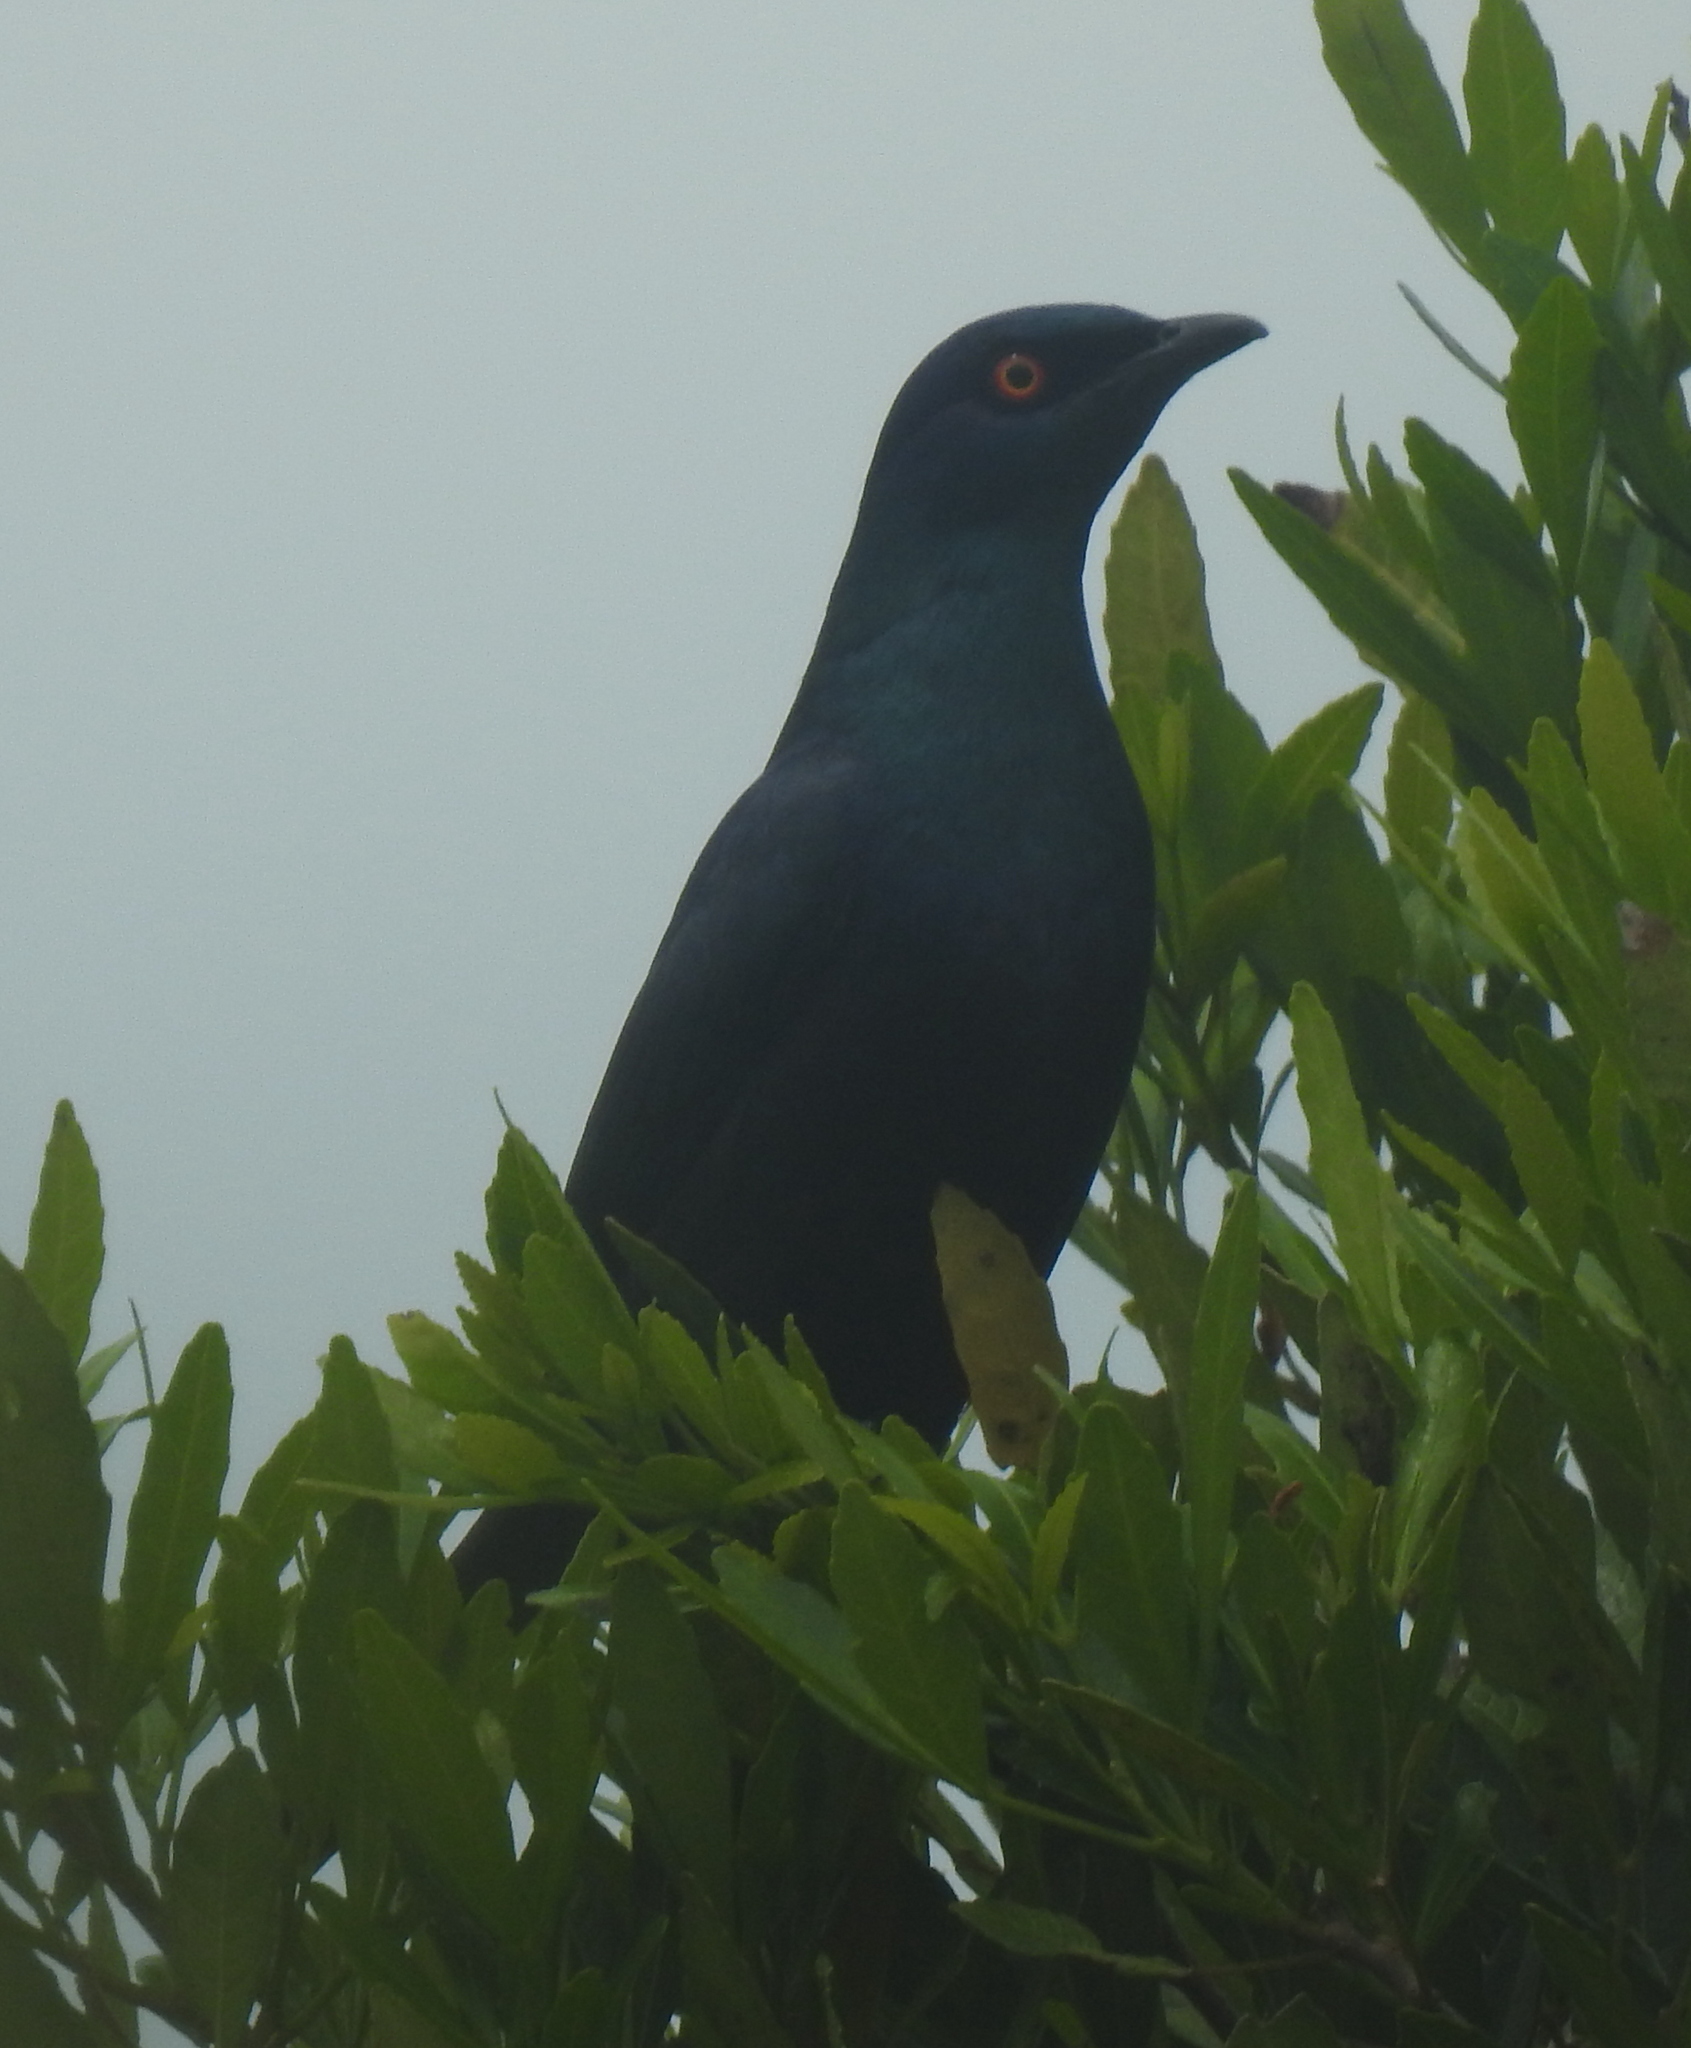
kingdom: Animalia
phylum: Chordata
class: Aves
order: Passeriformes
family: Sturnidae
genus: Notopholia
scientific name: Notopholia corrusca
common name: Black-bellied starling
